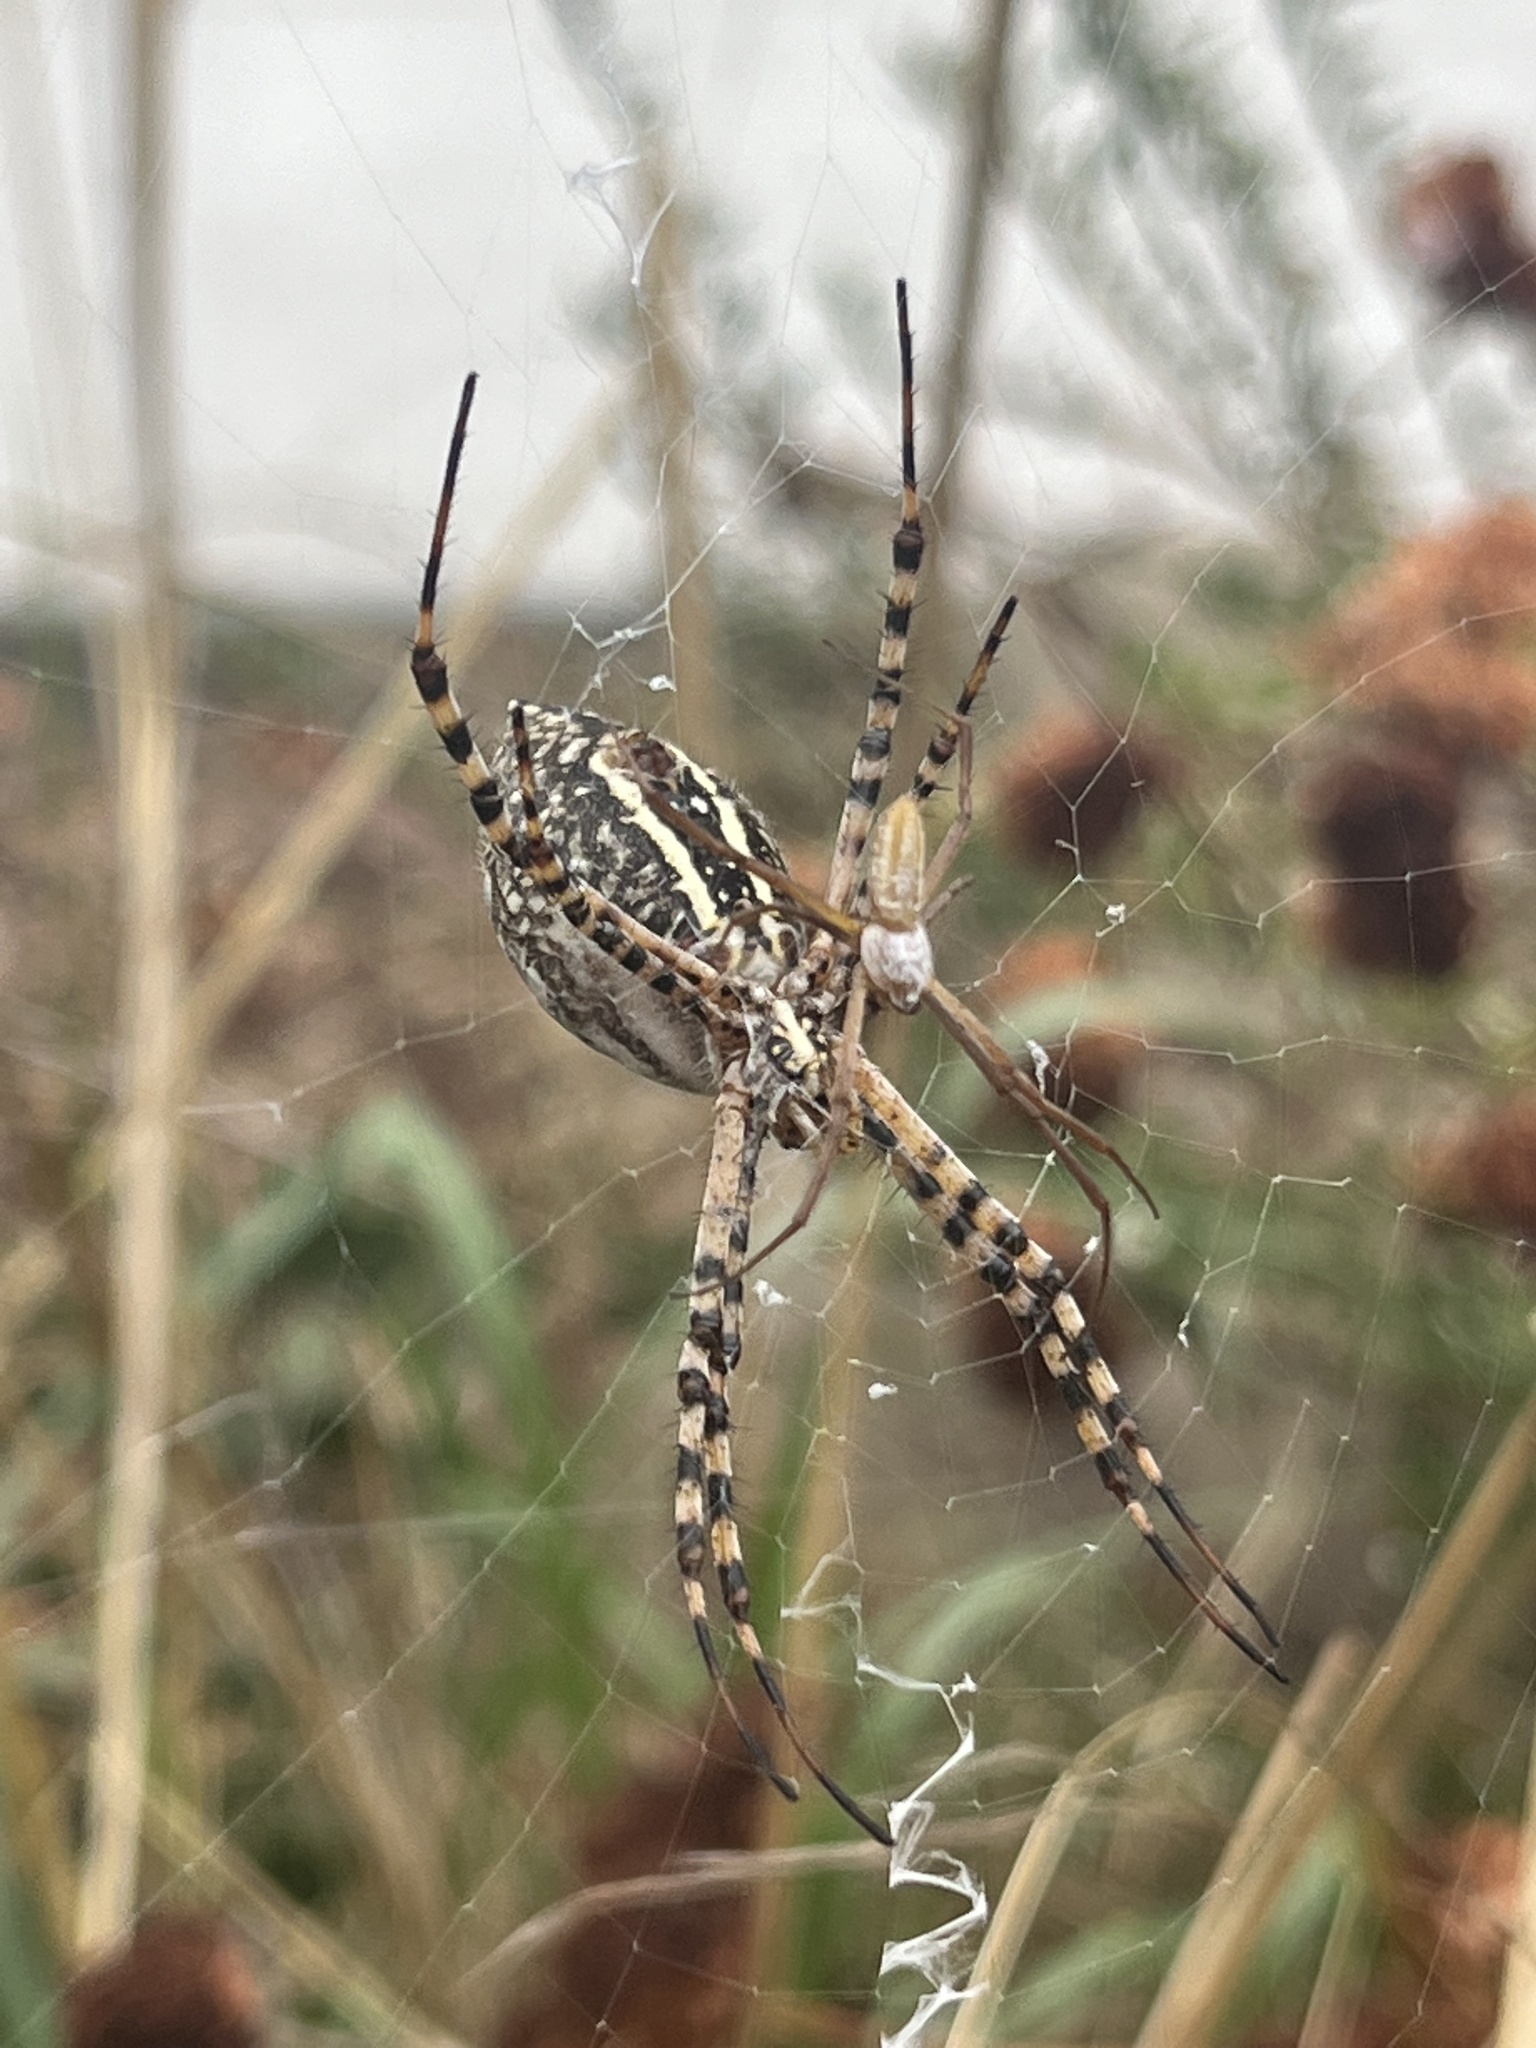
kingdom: Animalia
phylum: Arthropoda
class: Arachnida
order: Araneae
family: Araneidae
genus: Argiope
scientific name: Argiope trifasciata
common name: Banded garden spider
